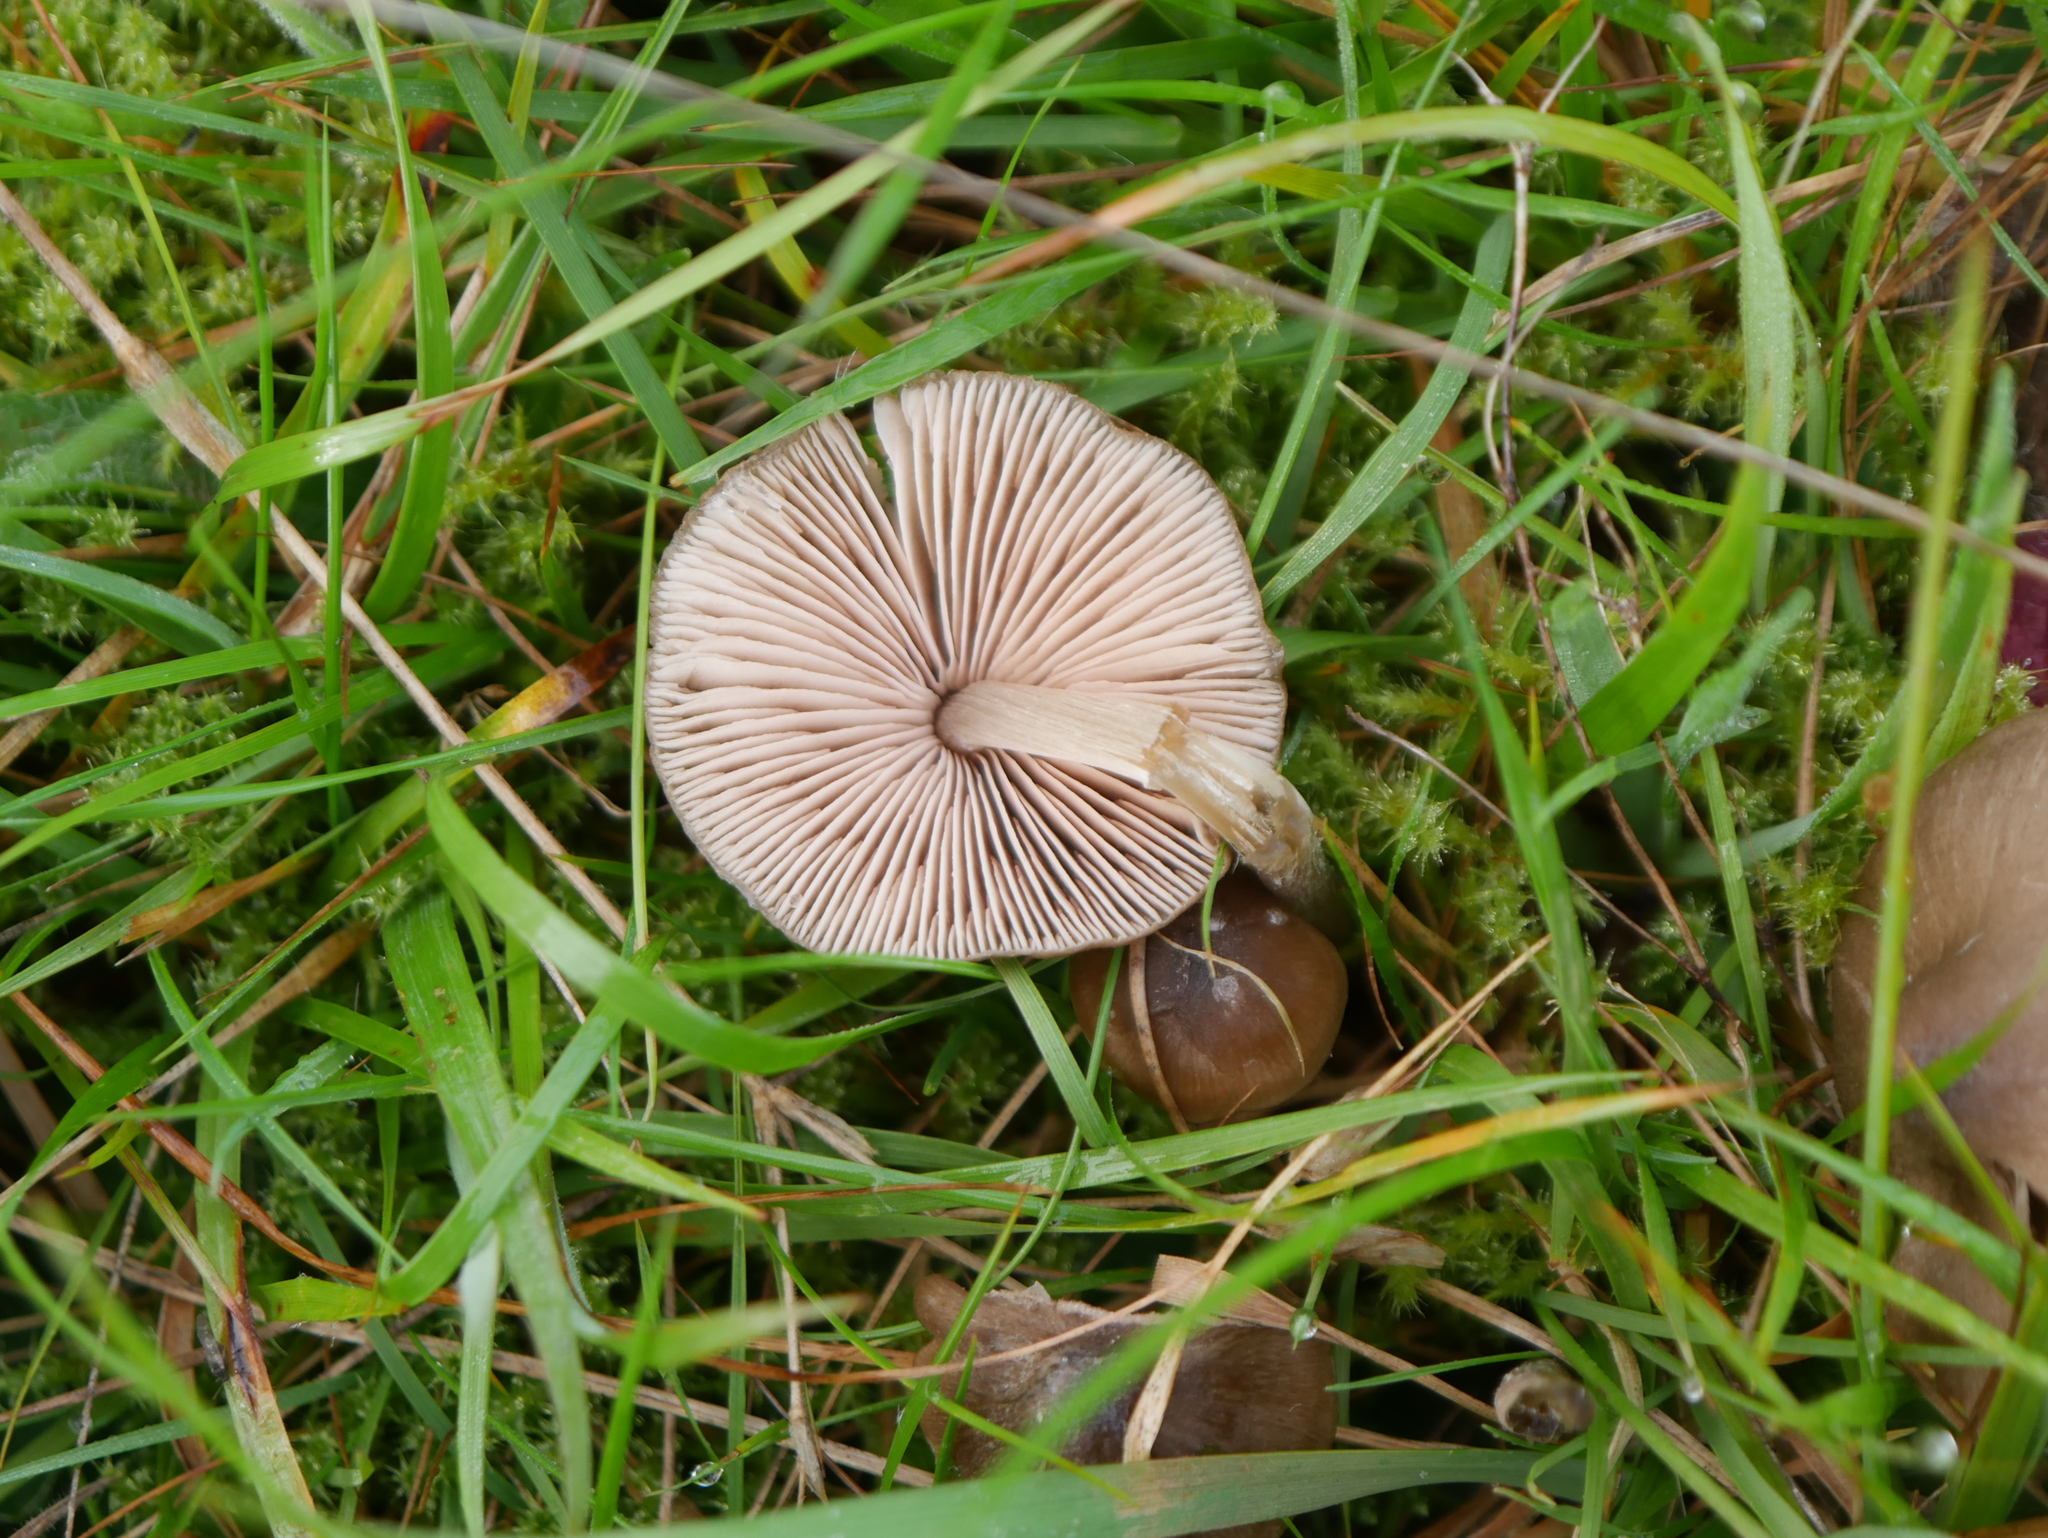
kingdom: Fungi
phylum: Basidiomycota
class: Agaricomycetes
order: Agaricales
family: Entolomataceae
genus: Entoloma
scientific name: Entoloma conferendum
